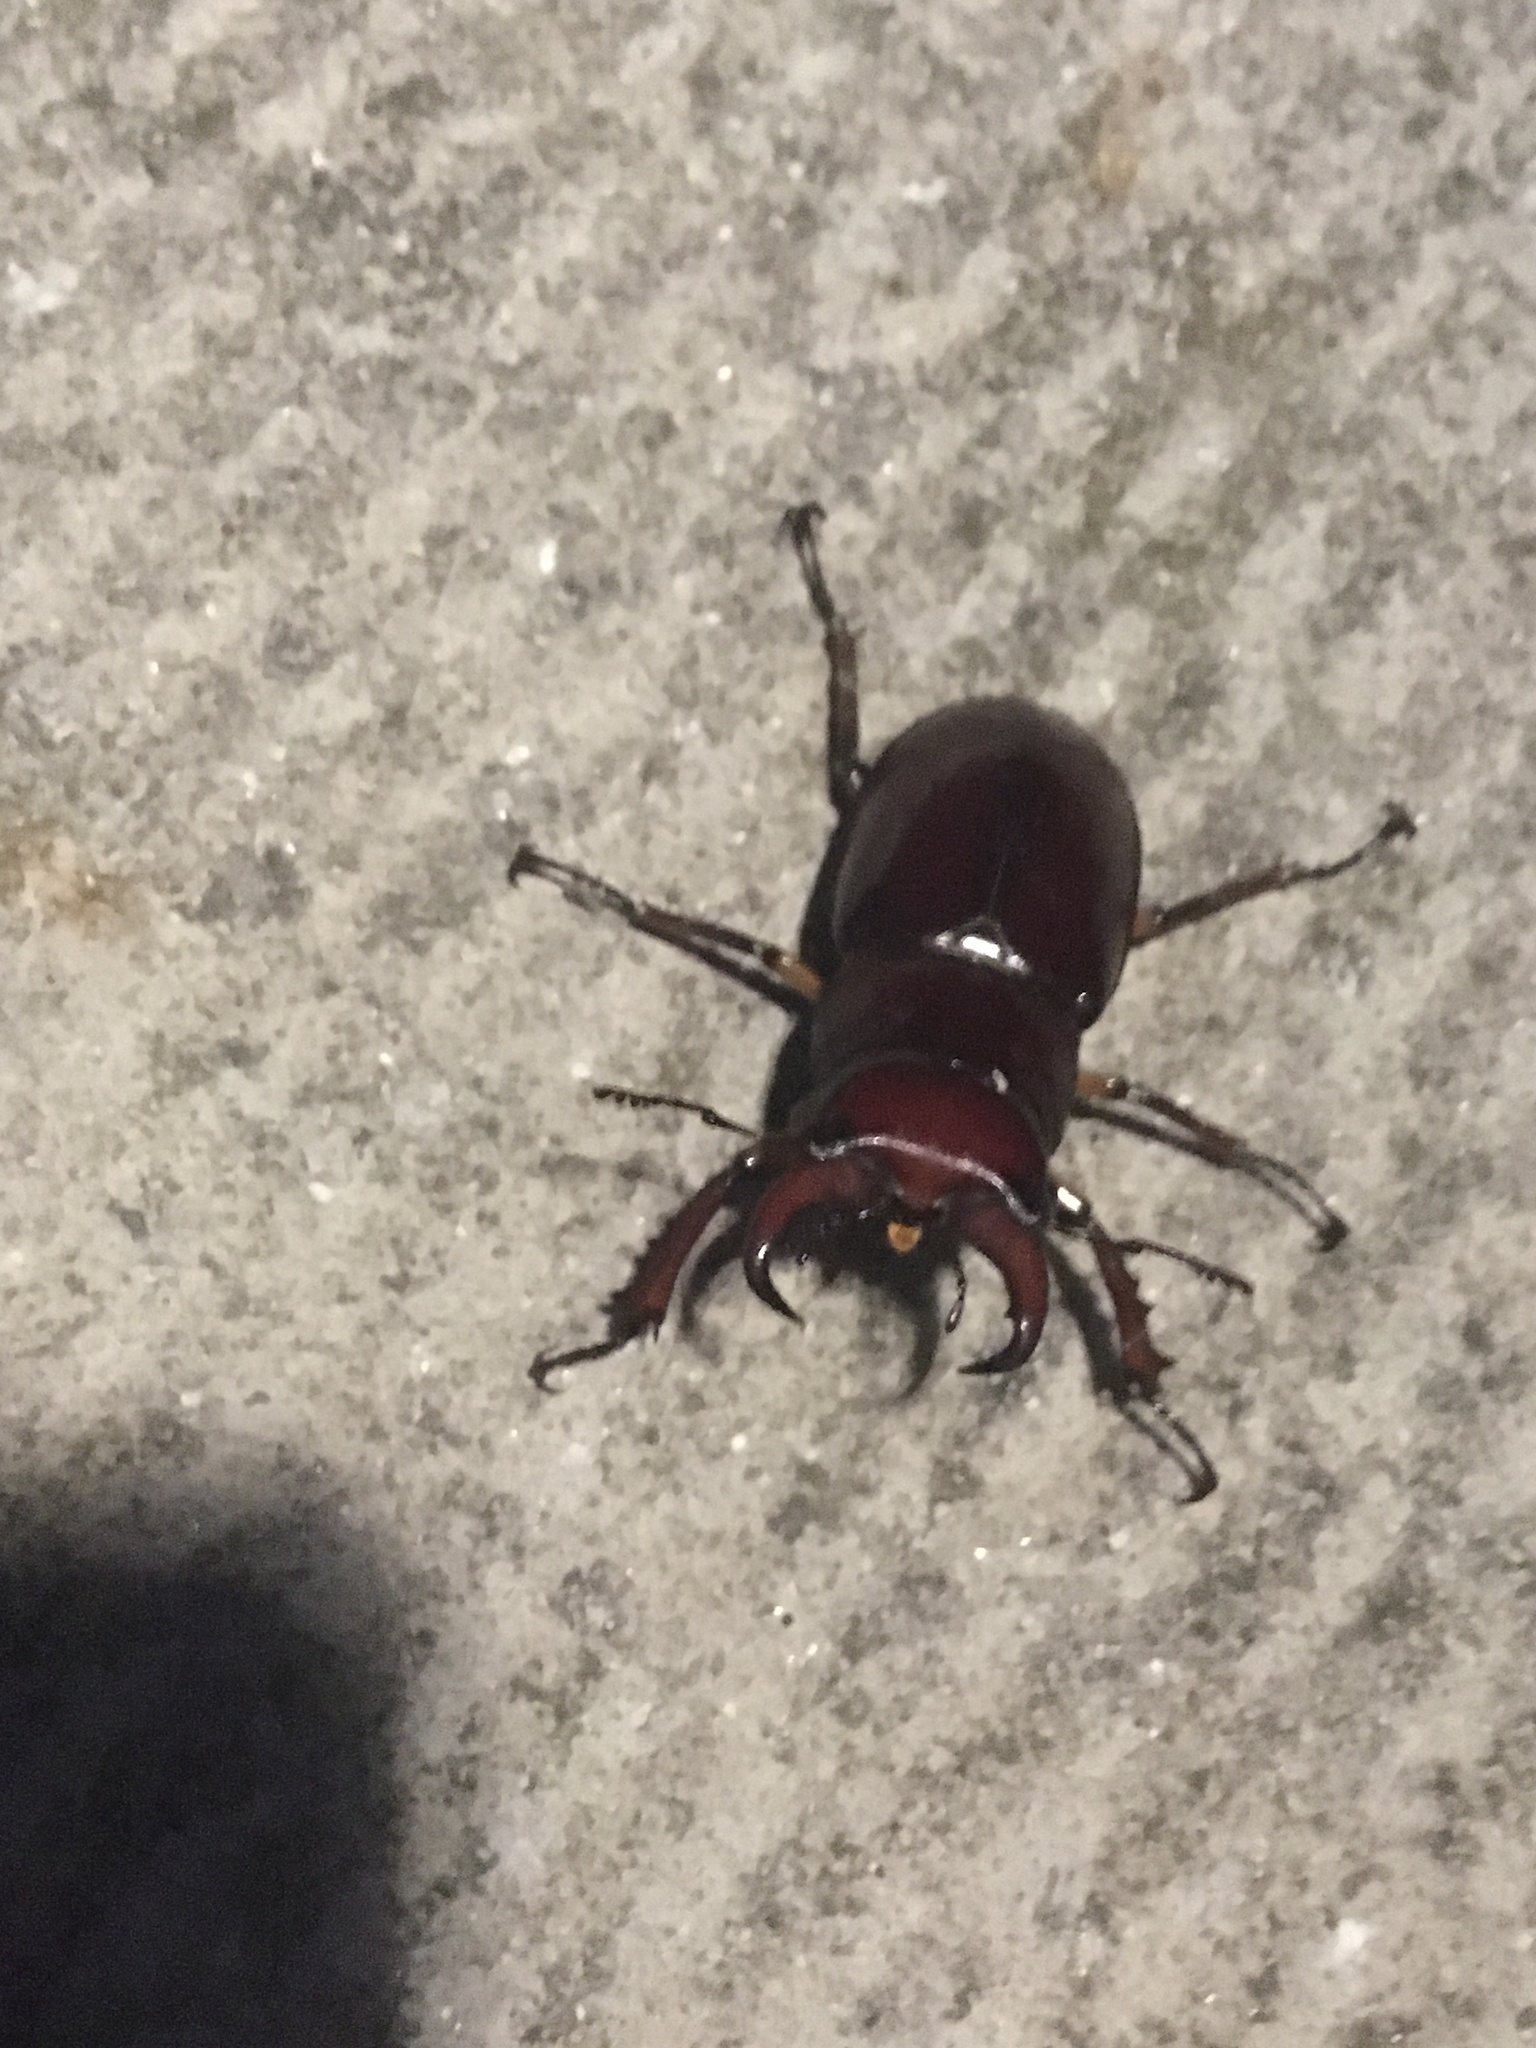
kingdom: Animalia
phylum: Arthropoda
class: Insecta
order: Coleoptera
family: Lucanidae
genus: Lucanus
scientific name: Lucanus capreolus
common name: Stag beetle
